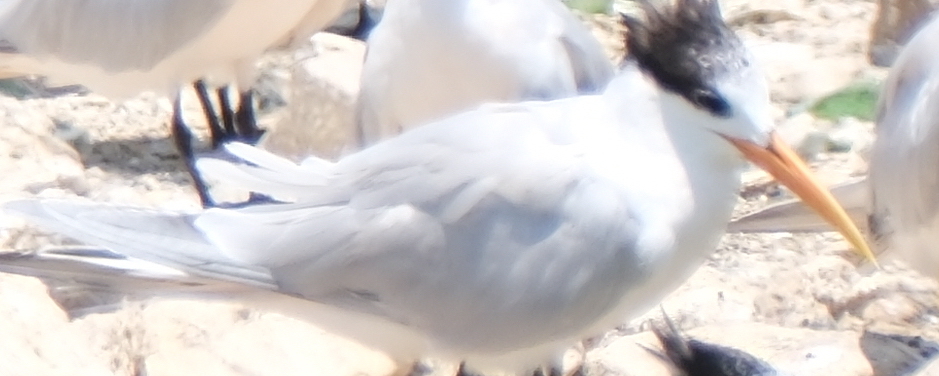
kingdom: Animalia
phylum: Chordata
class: Aves
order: Charadriiformes
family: Laridae
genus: Thalasseus
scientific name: Thalasseus elegans
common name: Elegant tern
